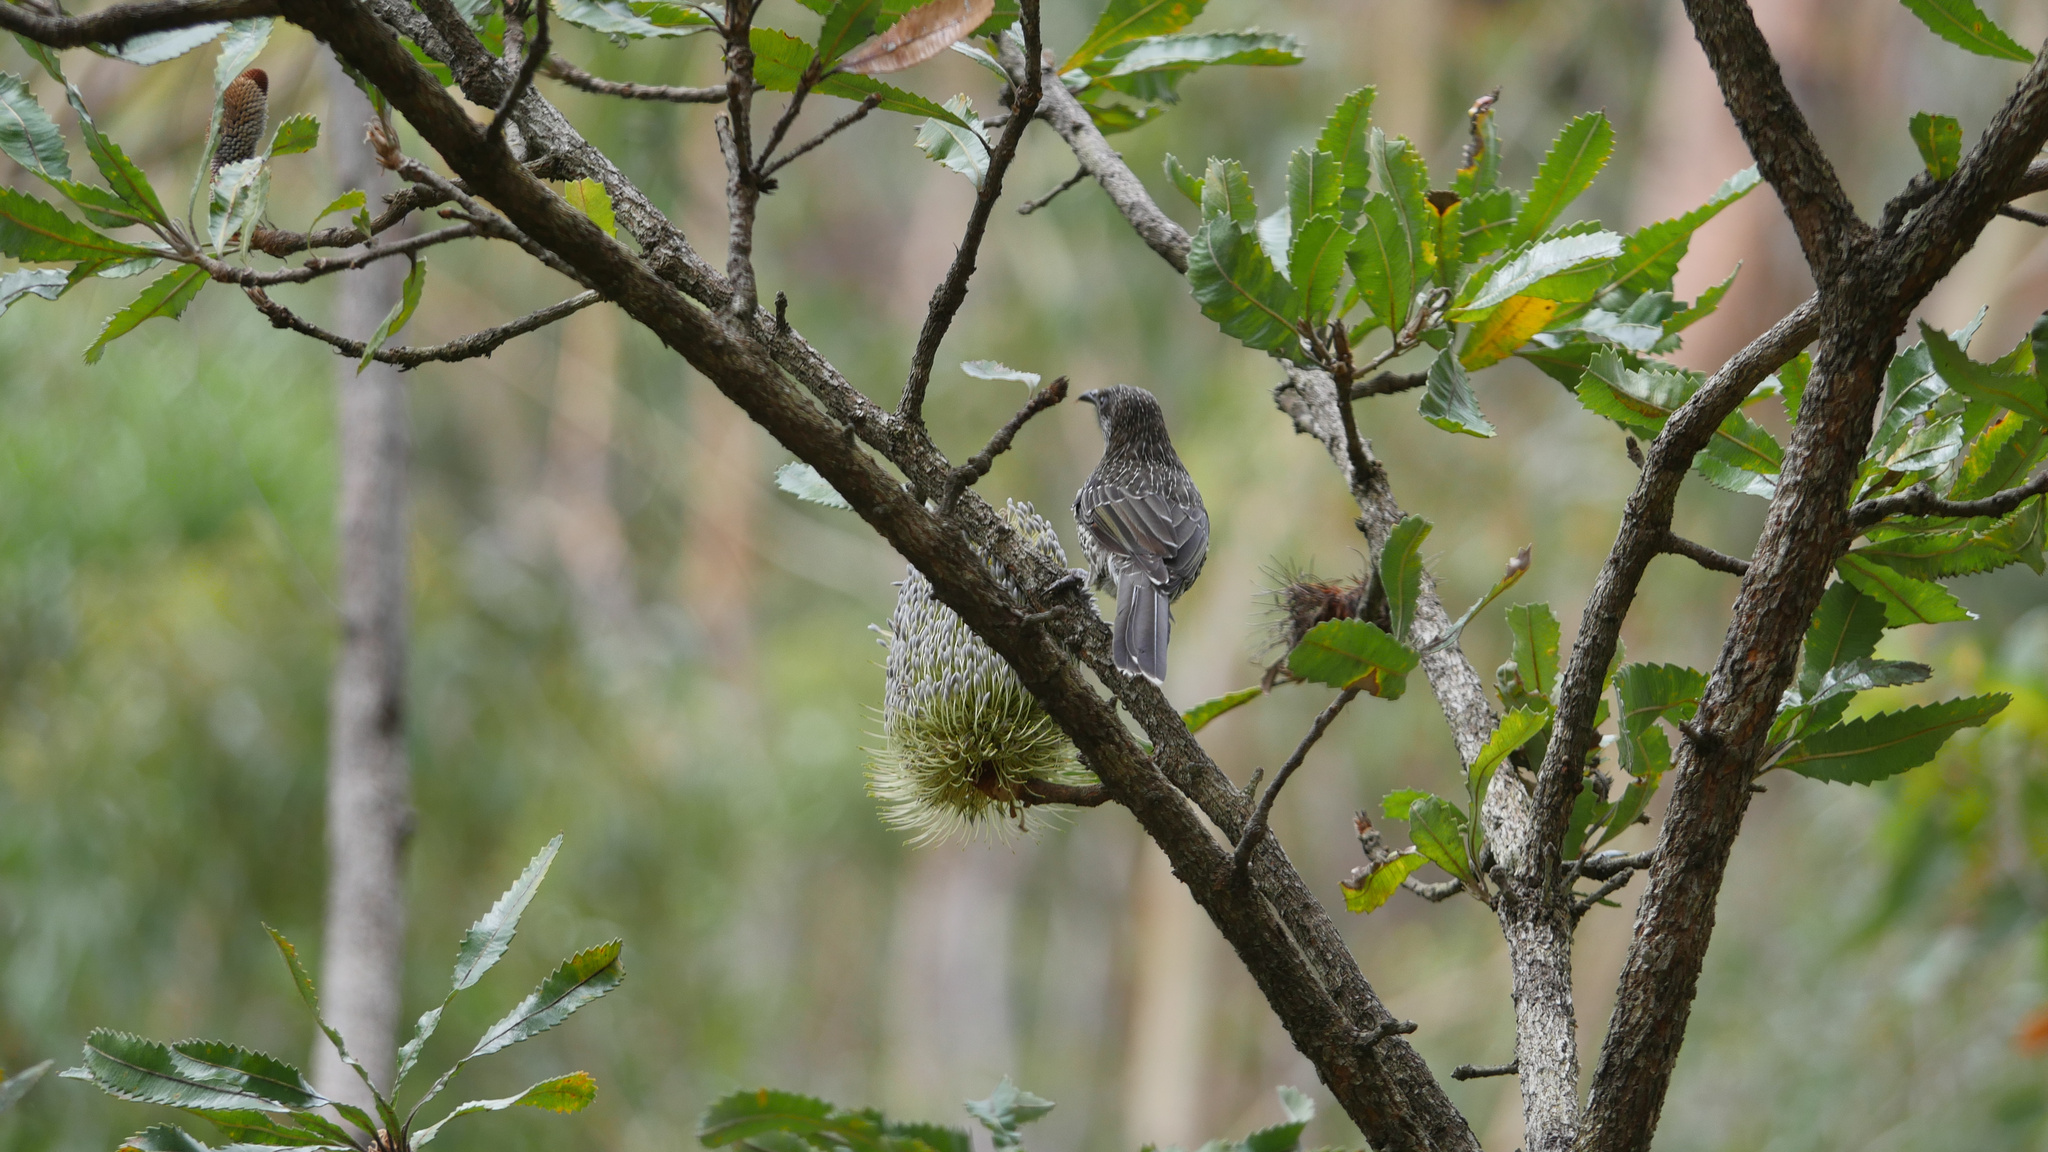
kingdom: Animalia
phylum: Chordata
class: Aves
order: Passeriformes
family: Meliphagidae
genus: Anthochaera
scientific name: Anthochaera chrysoptera
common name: Little wattlebird
